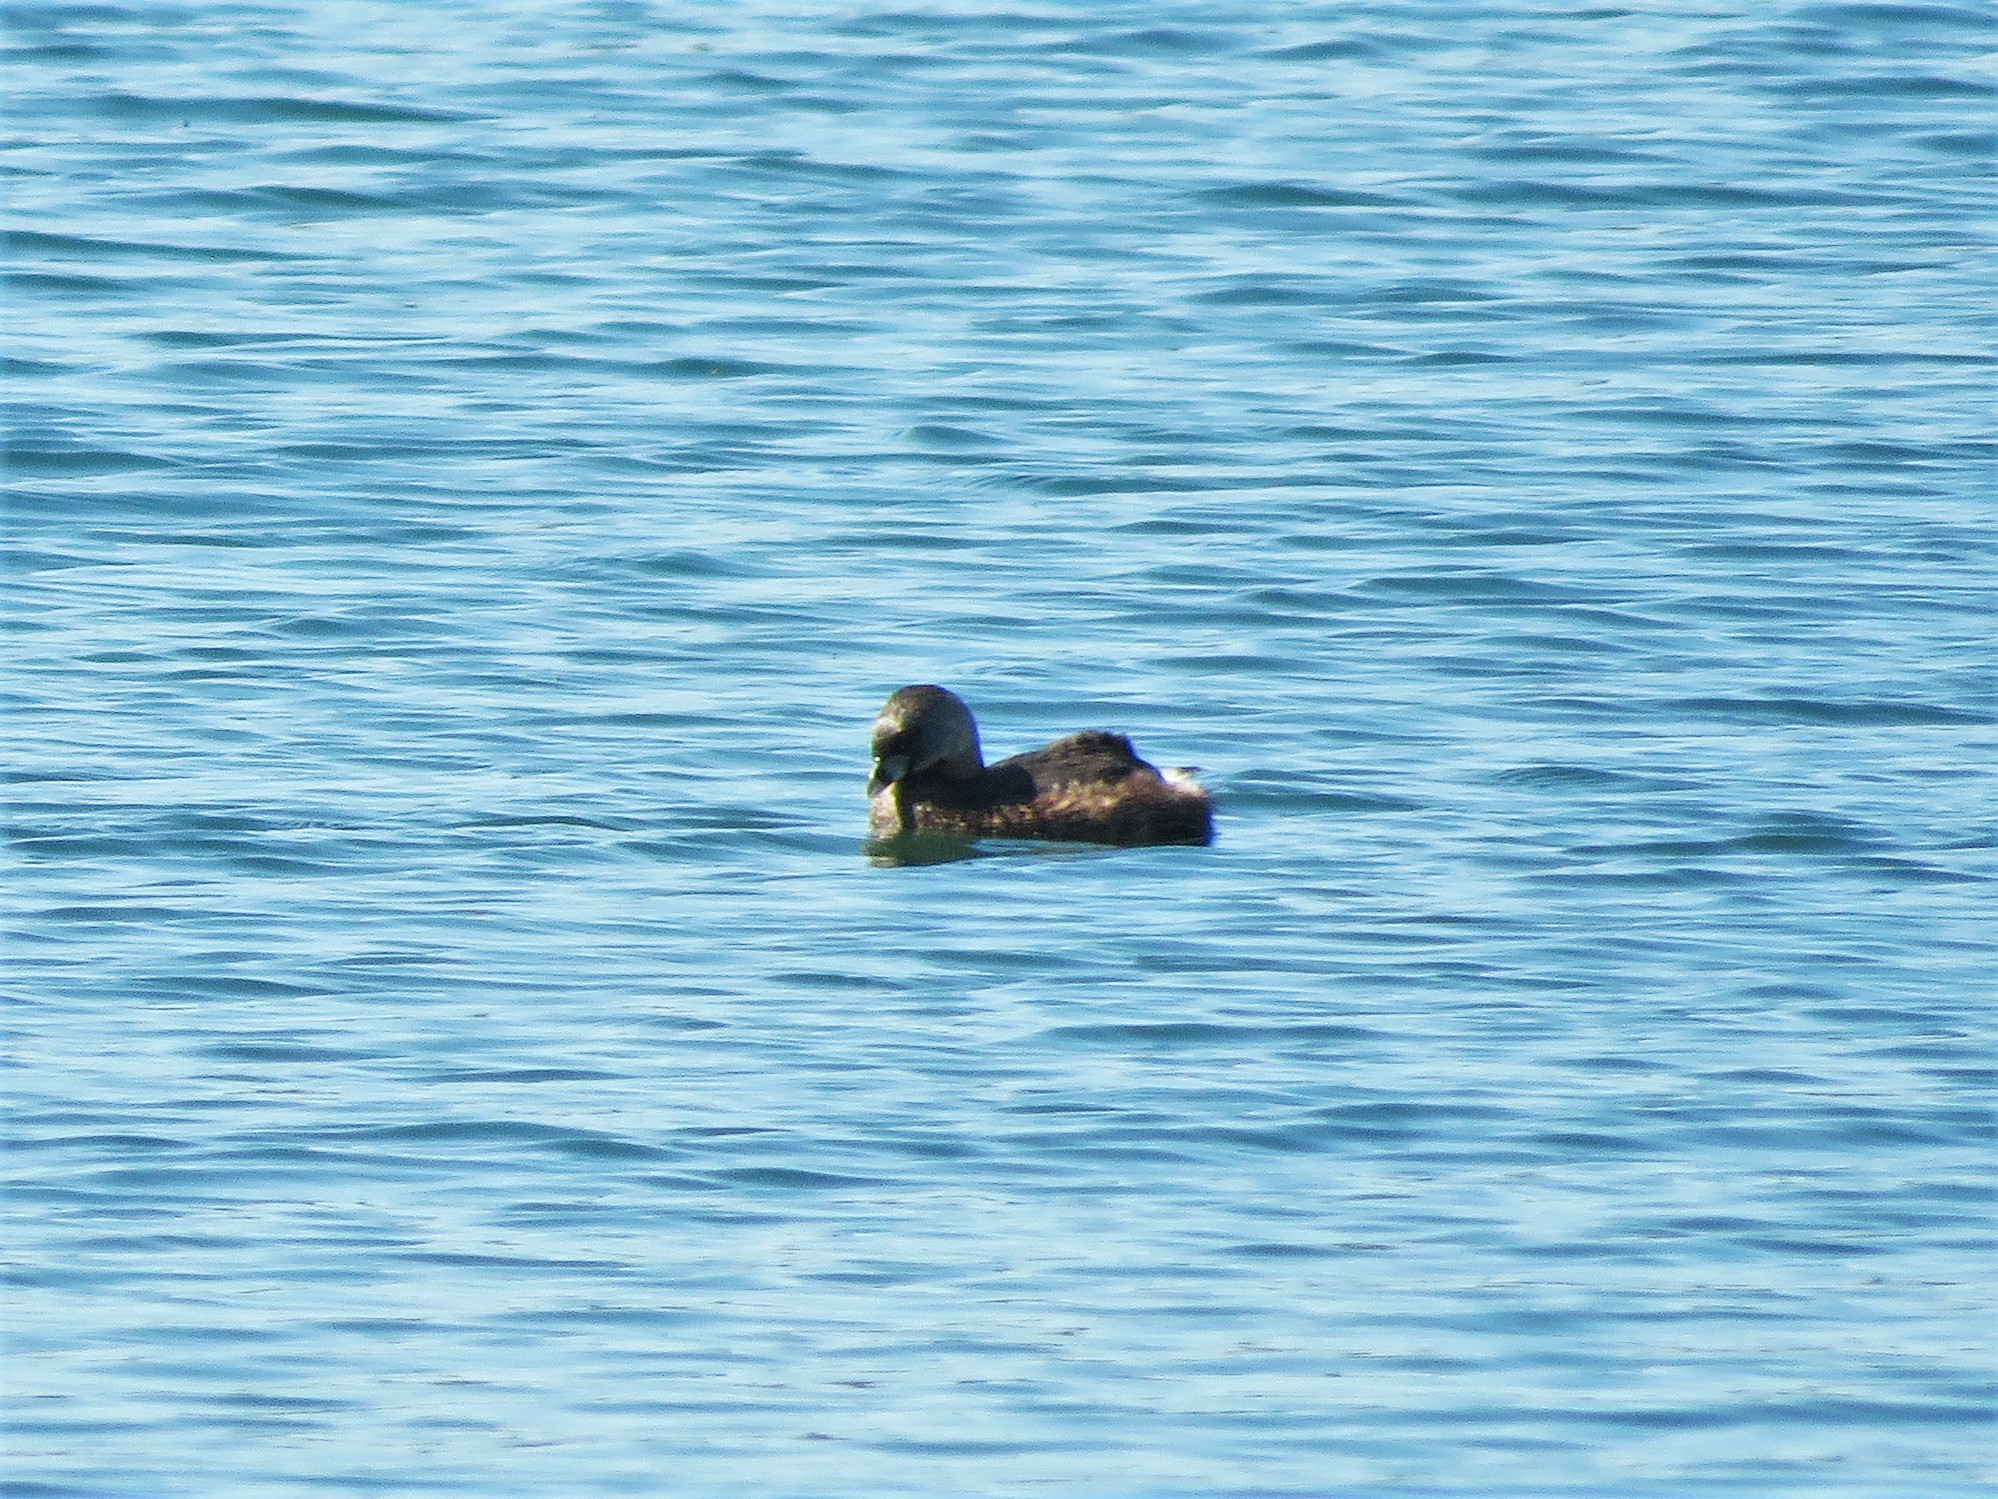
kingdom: Animalia
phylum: Chordata
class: Aves
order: Podicipediformes
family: Podicipedidae
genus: Podilymbus
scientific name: Podilymbus podiceps
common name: Pied-billed grebe
